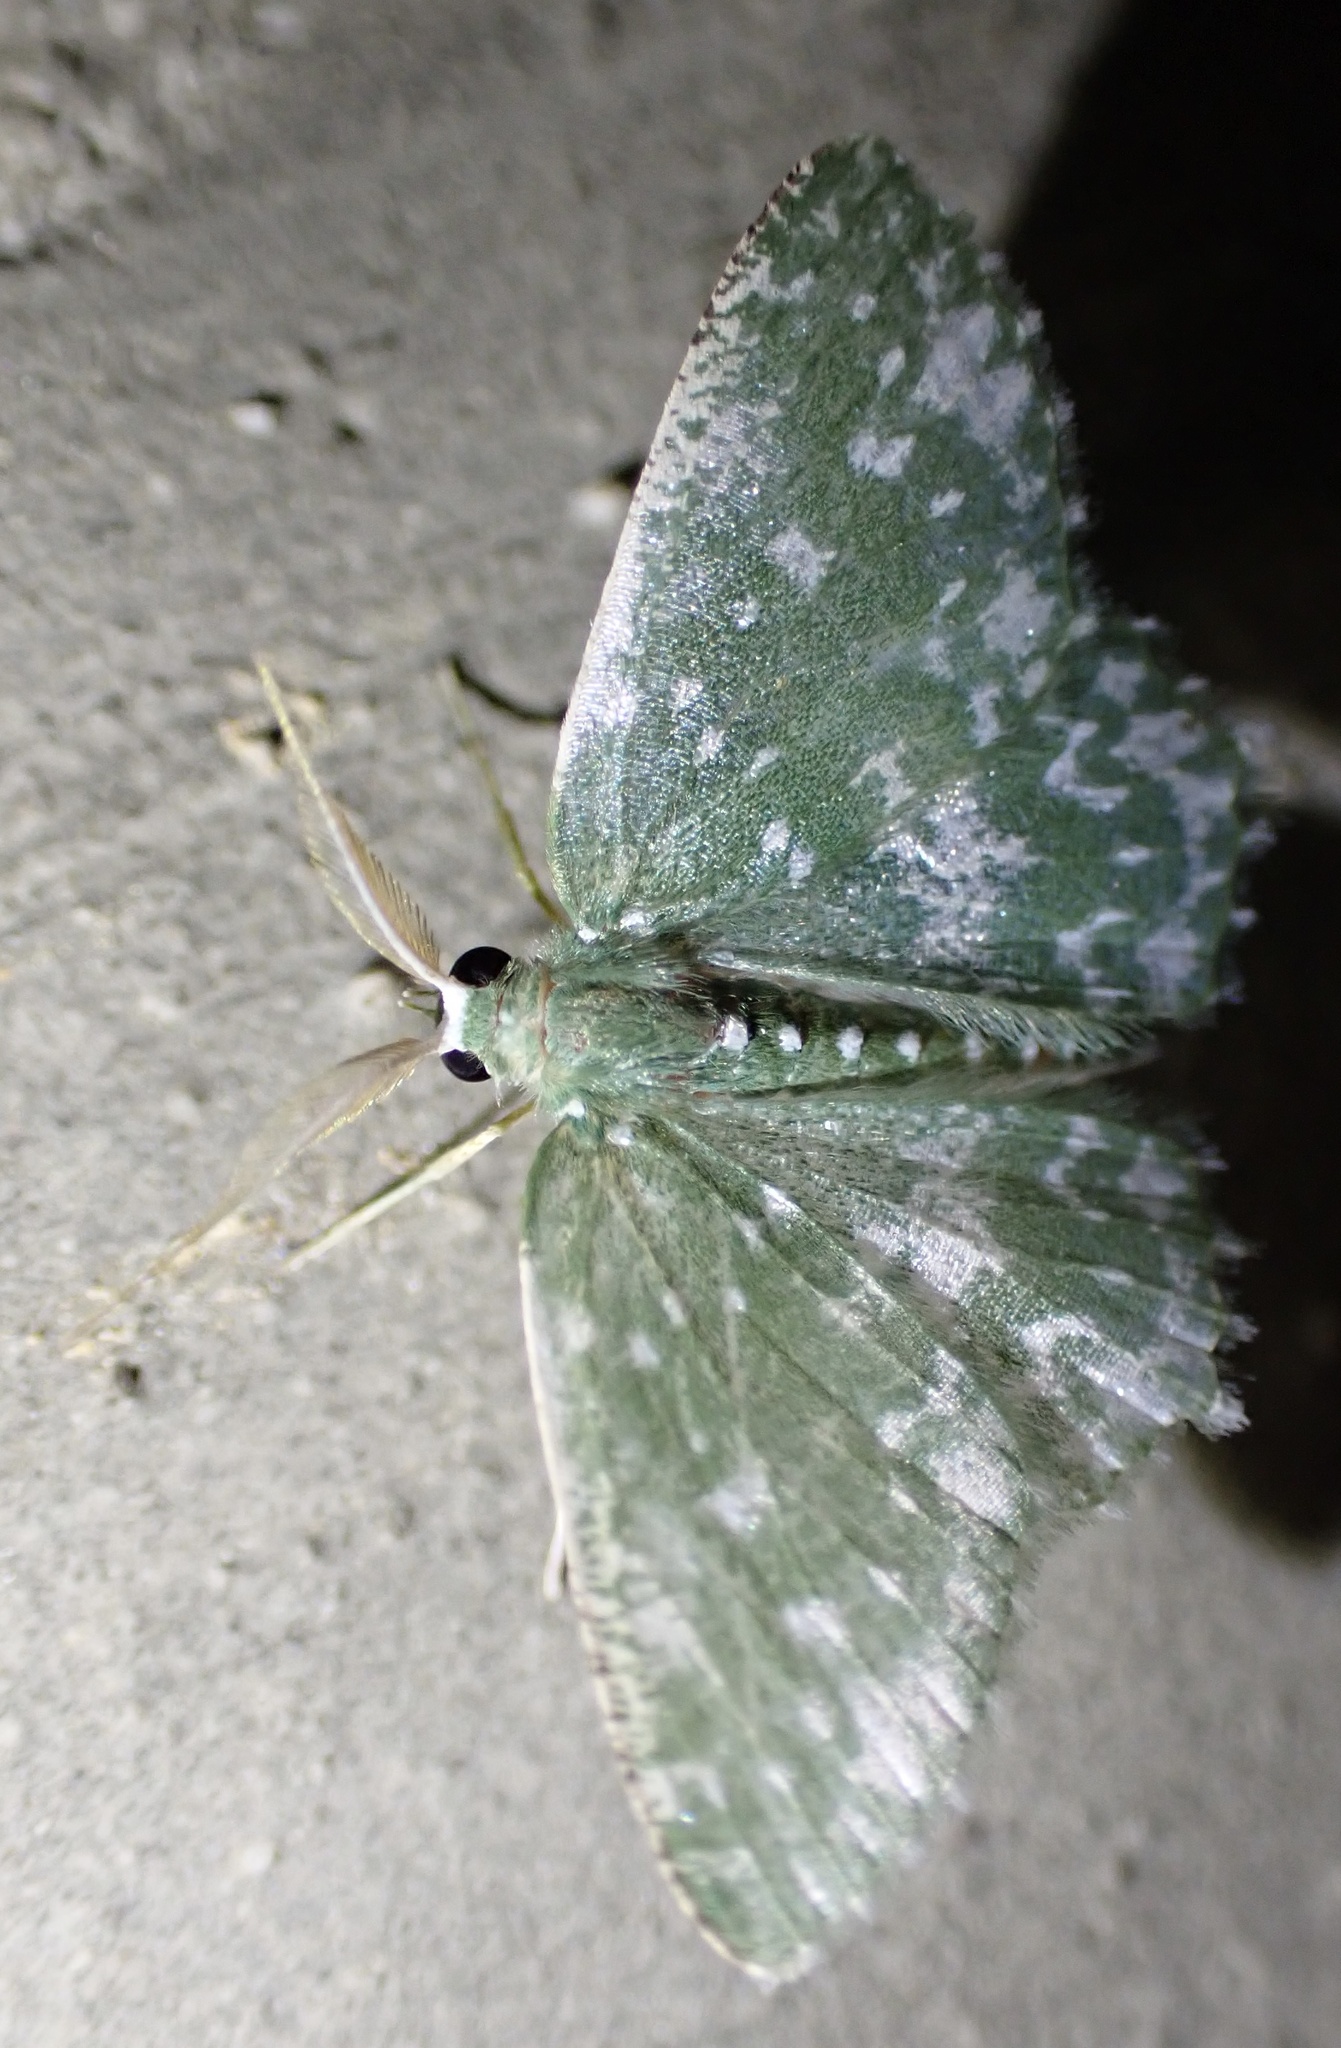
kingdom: Animalia
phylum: Arthropoda
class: Insecta
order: Lepidoptera
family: Geometridae
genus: Prasinocyma
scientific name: Prasinocyma
